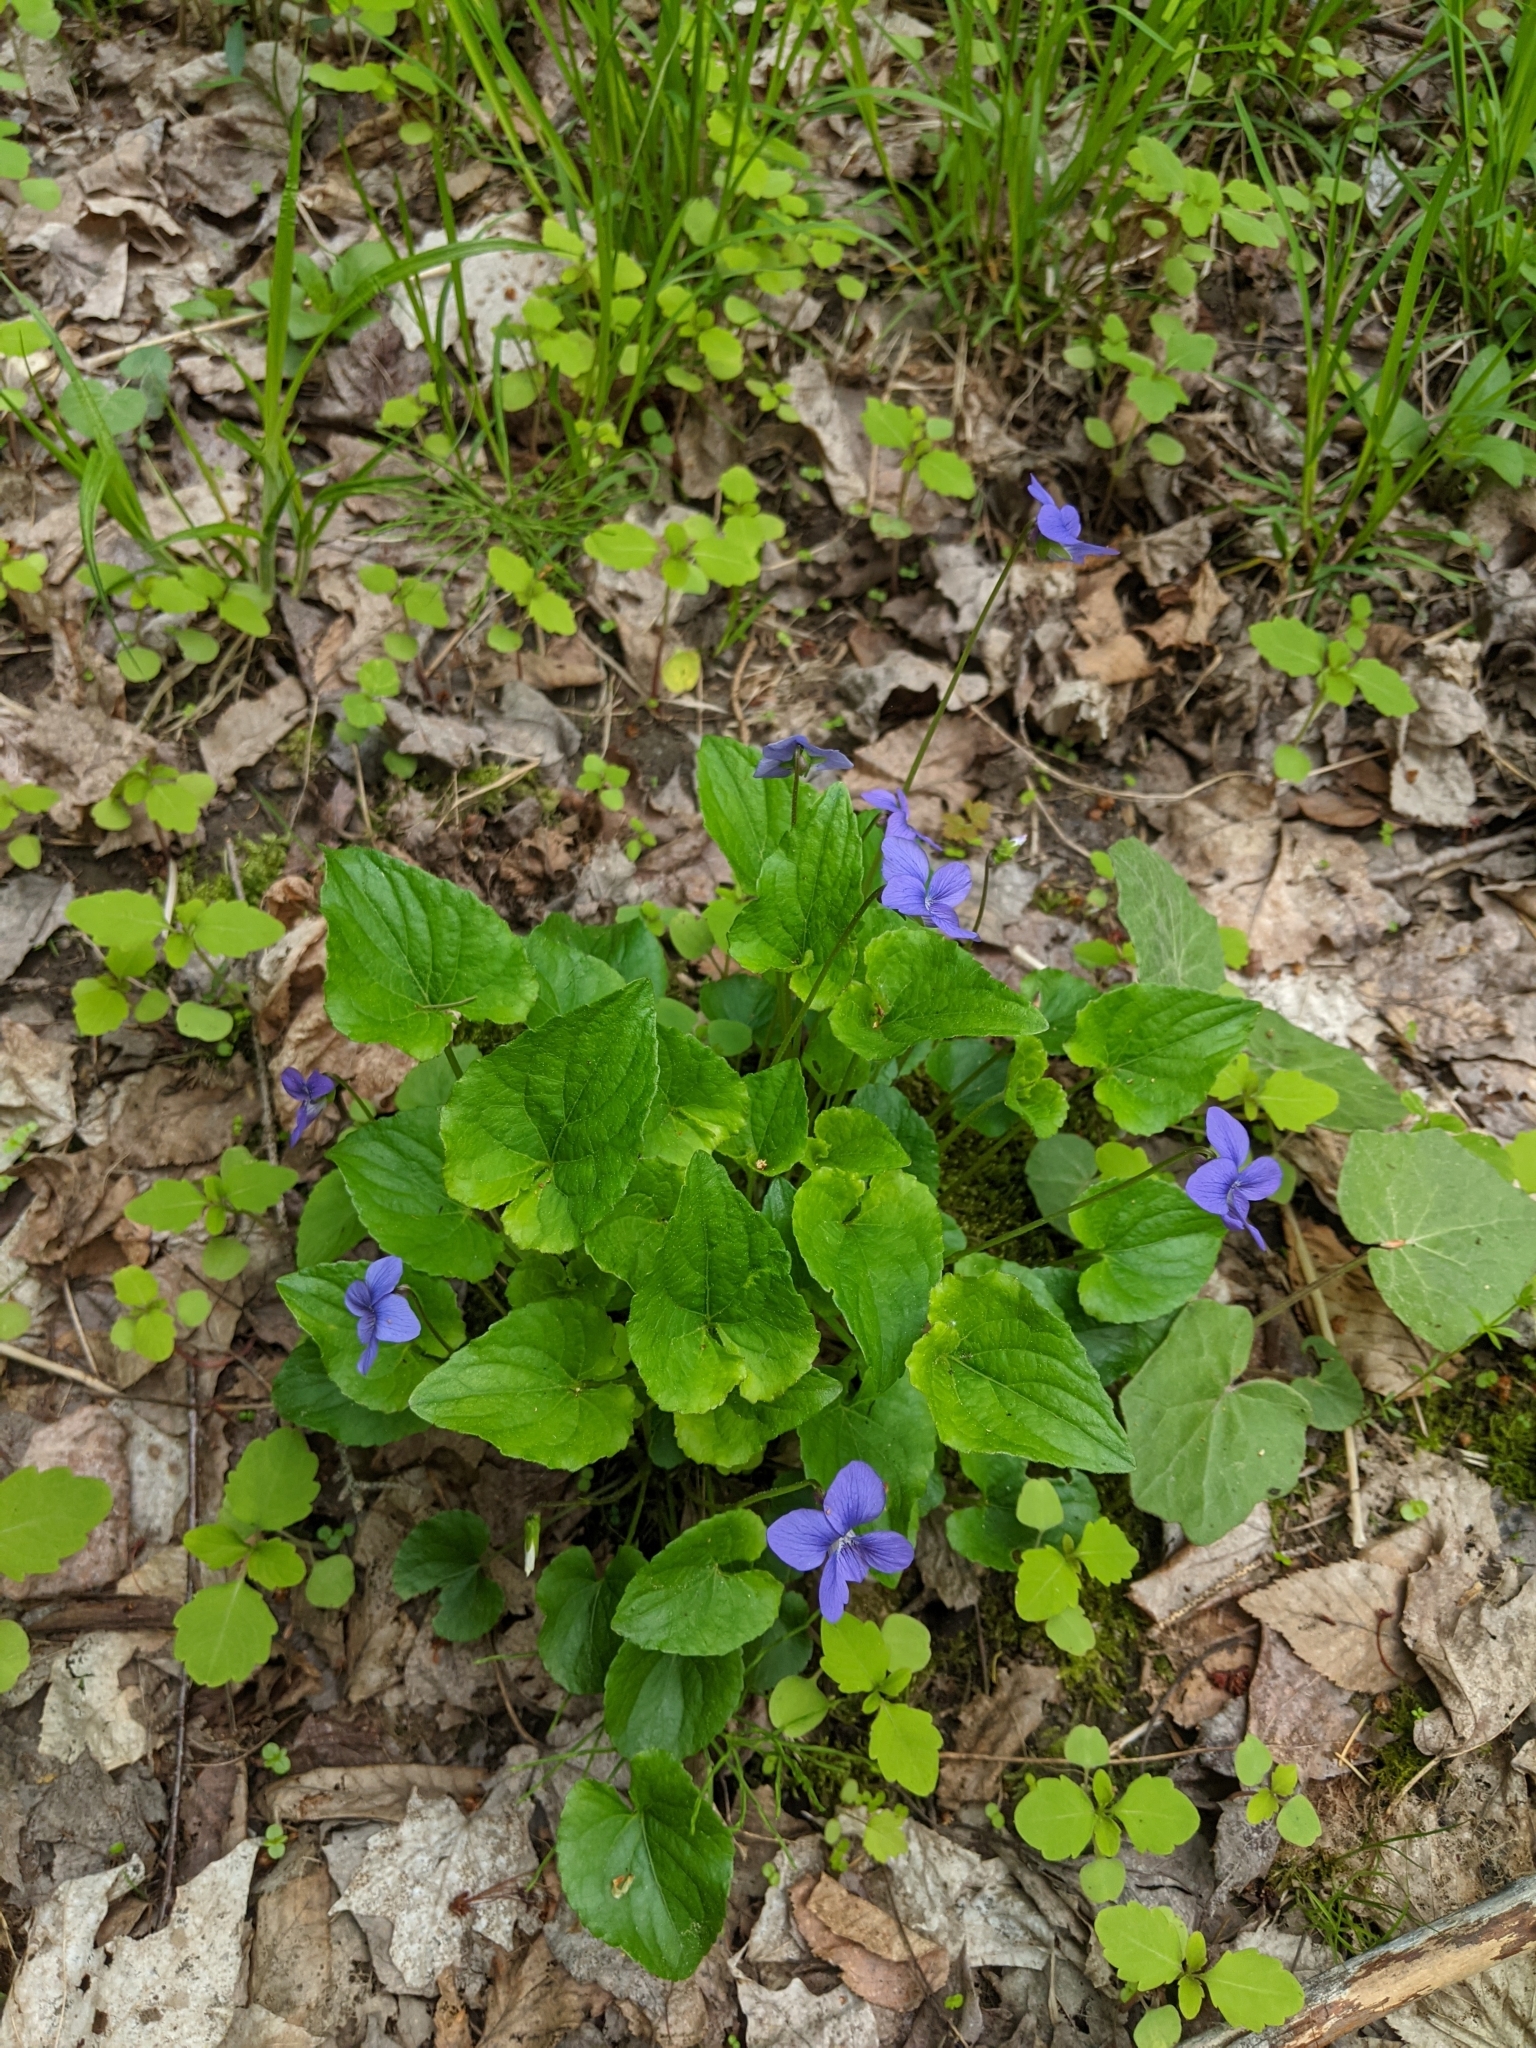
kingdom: Plantae
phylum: Tracheophyta
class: Magnoliopsida
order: Malpighiales
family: Violaceae
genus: Viola
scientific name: Viola cucullata
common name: Marsh blue violet
